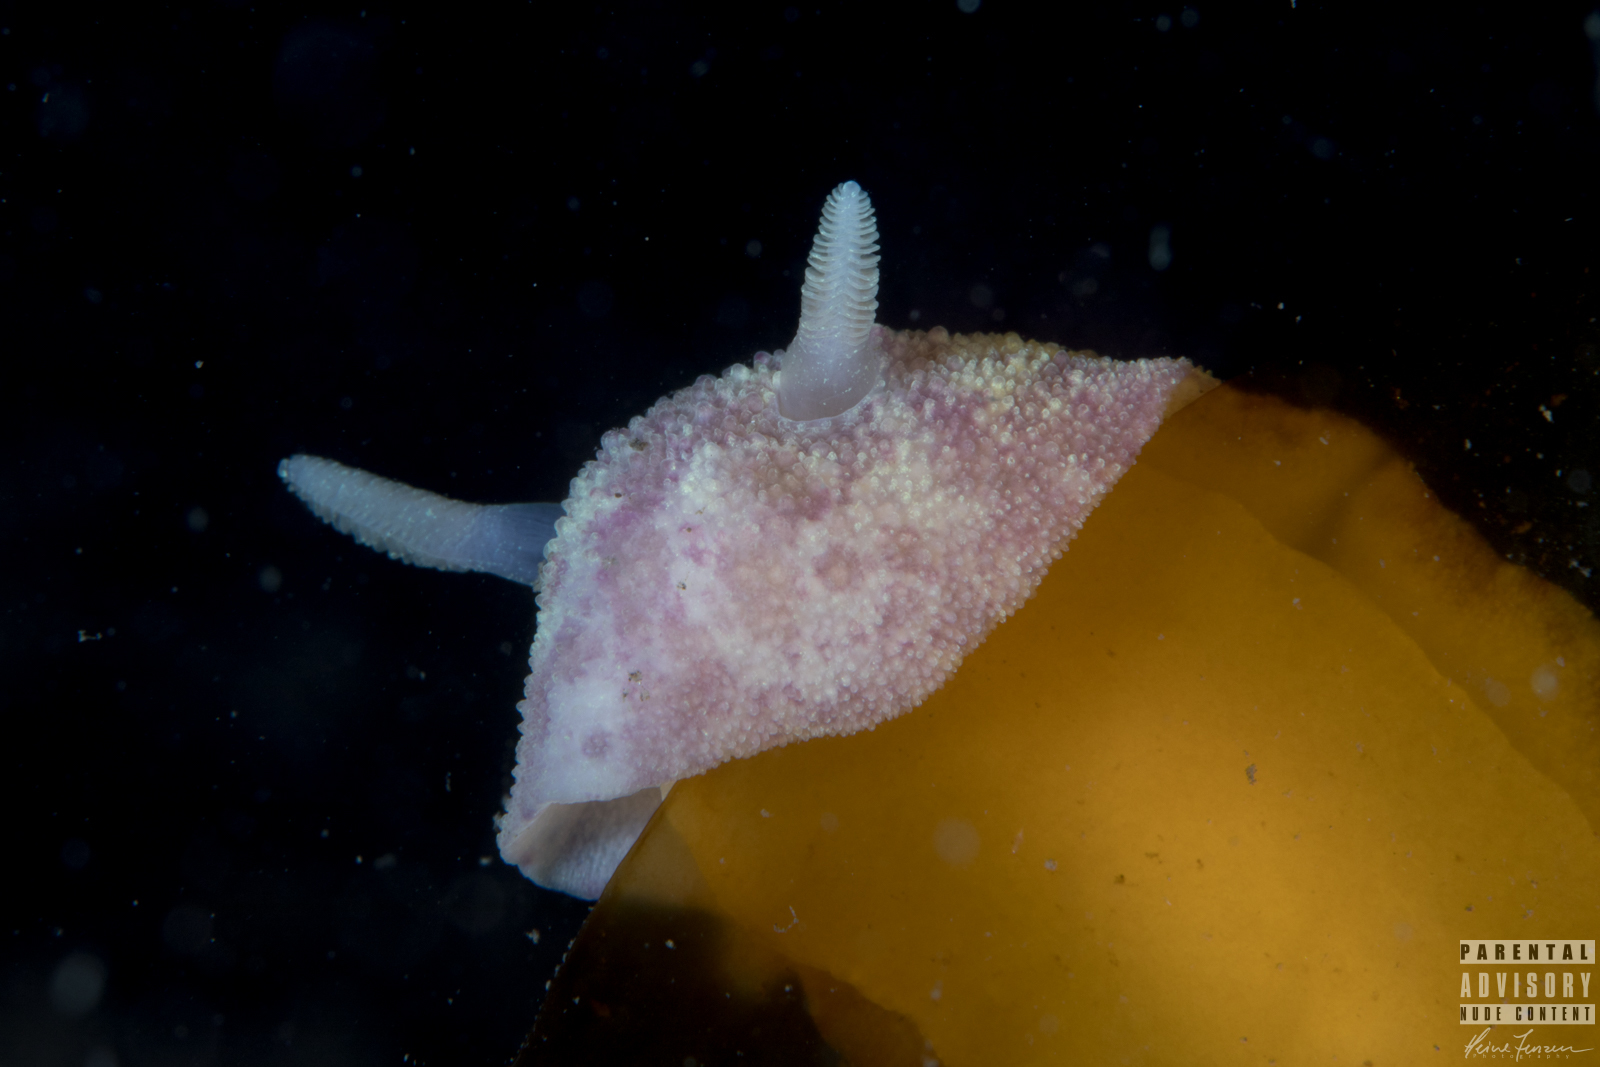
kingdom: Animalia
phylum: Mollusca
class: Gastropoda
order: Nudibranchia
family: Dorididae
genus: Doris
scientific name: Doris pseudoargus
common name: Sea lemon
